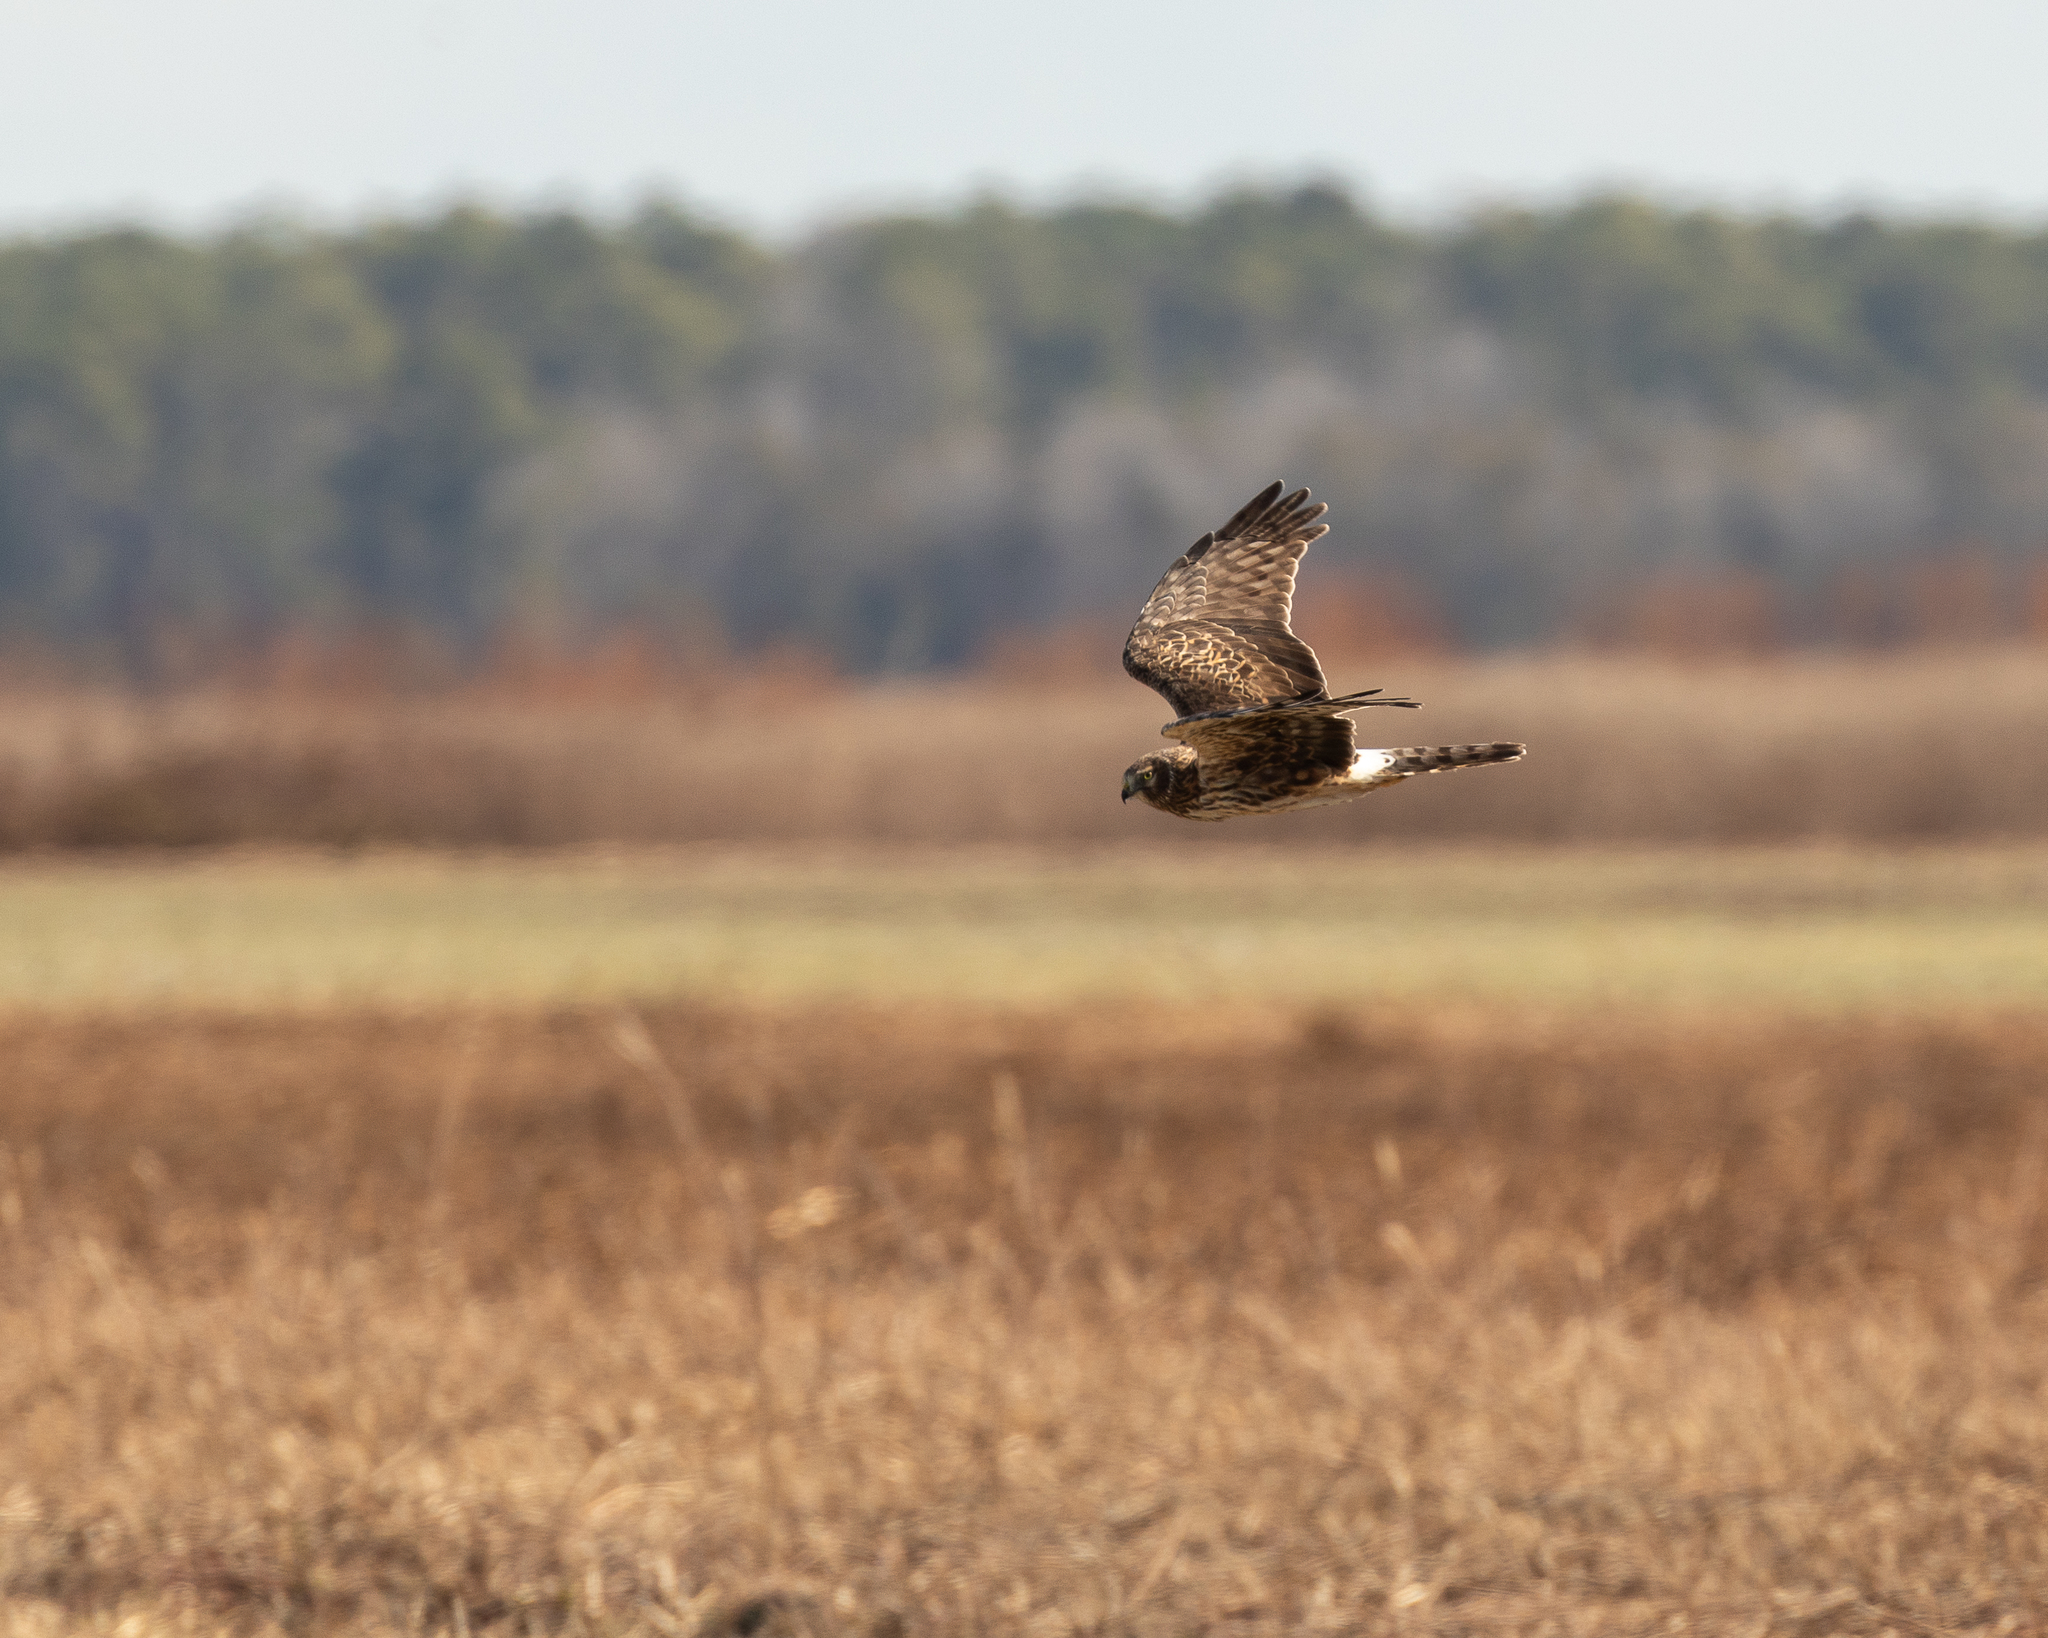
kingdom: Animalia
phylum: Chordata
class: Aves
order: Accipitriformes
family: Accipitridae
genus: Circus
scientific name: Circus cyaneus
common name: Hen harrier
